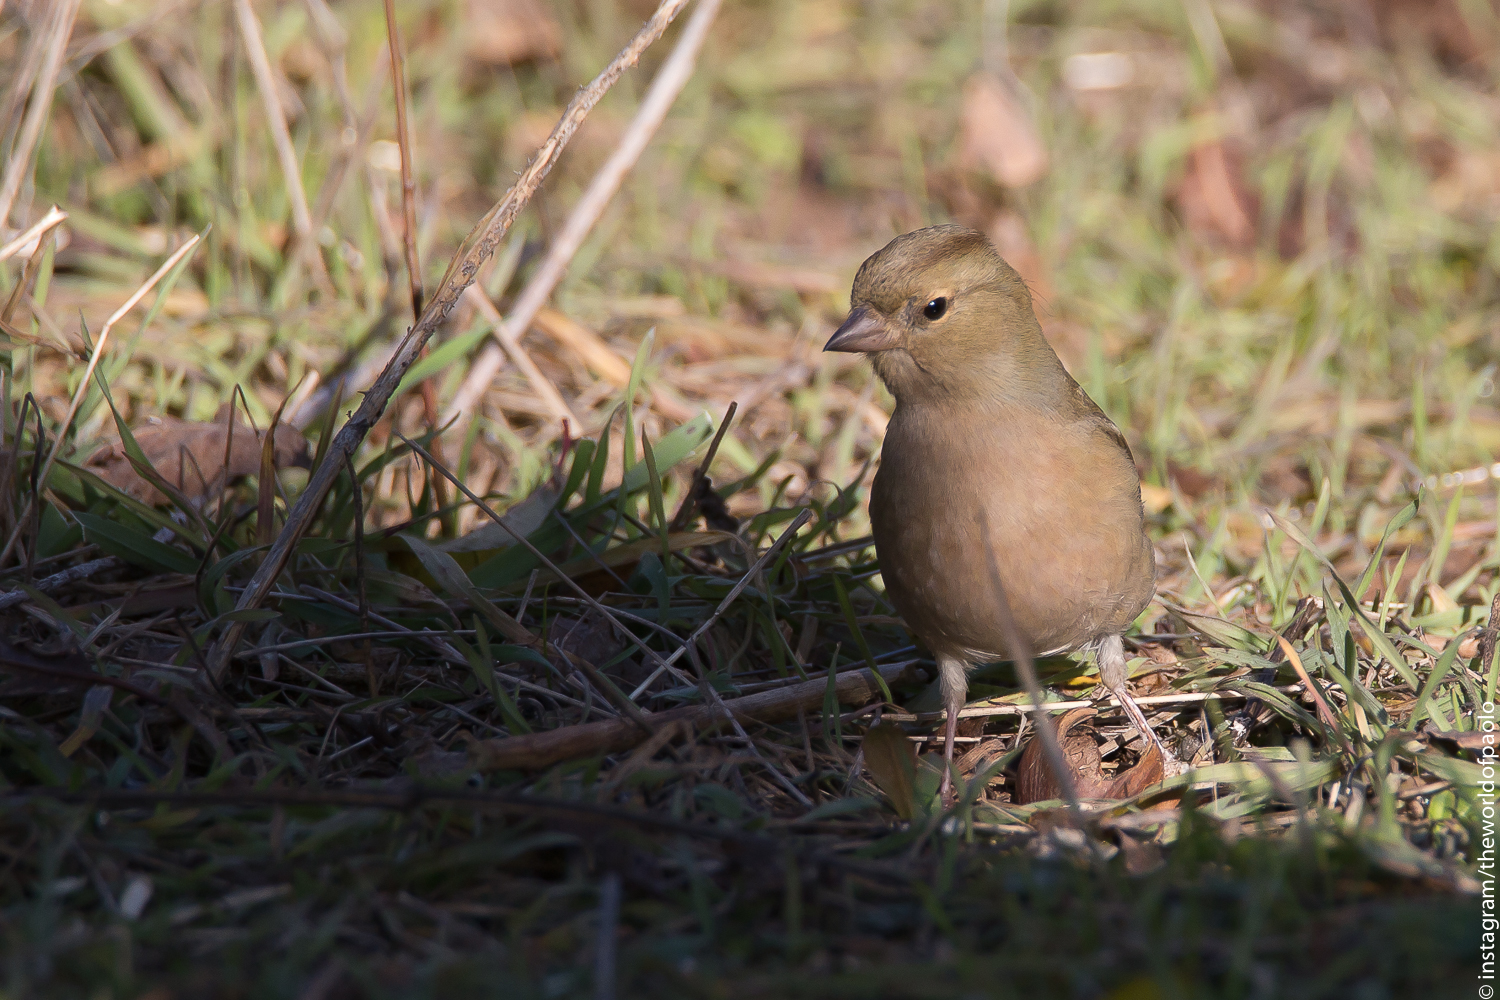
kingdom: Animalia
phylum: Chordata
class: Aves
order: Passeriformes
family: Fringillidae
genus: Fringilla
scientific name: Fringilla coelebs
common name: Common chaffinch
